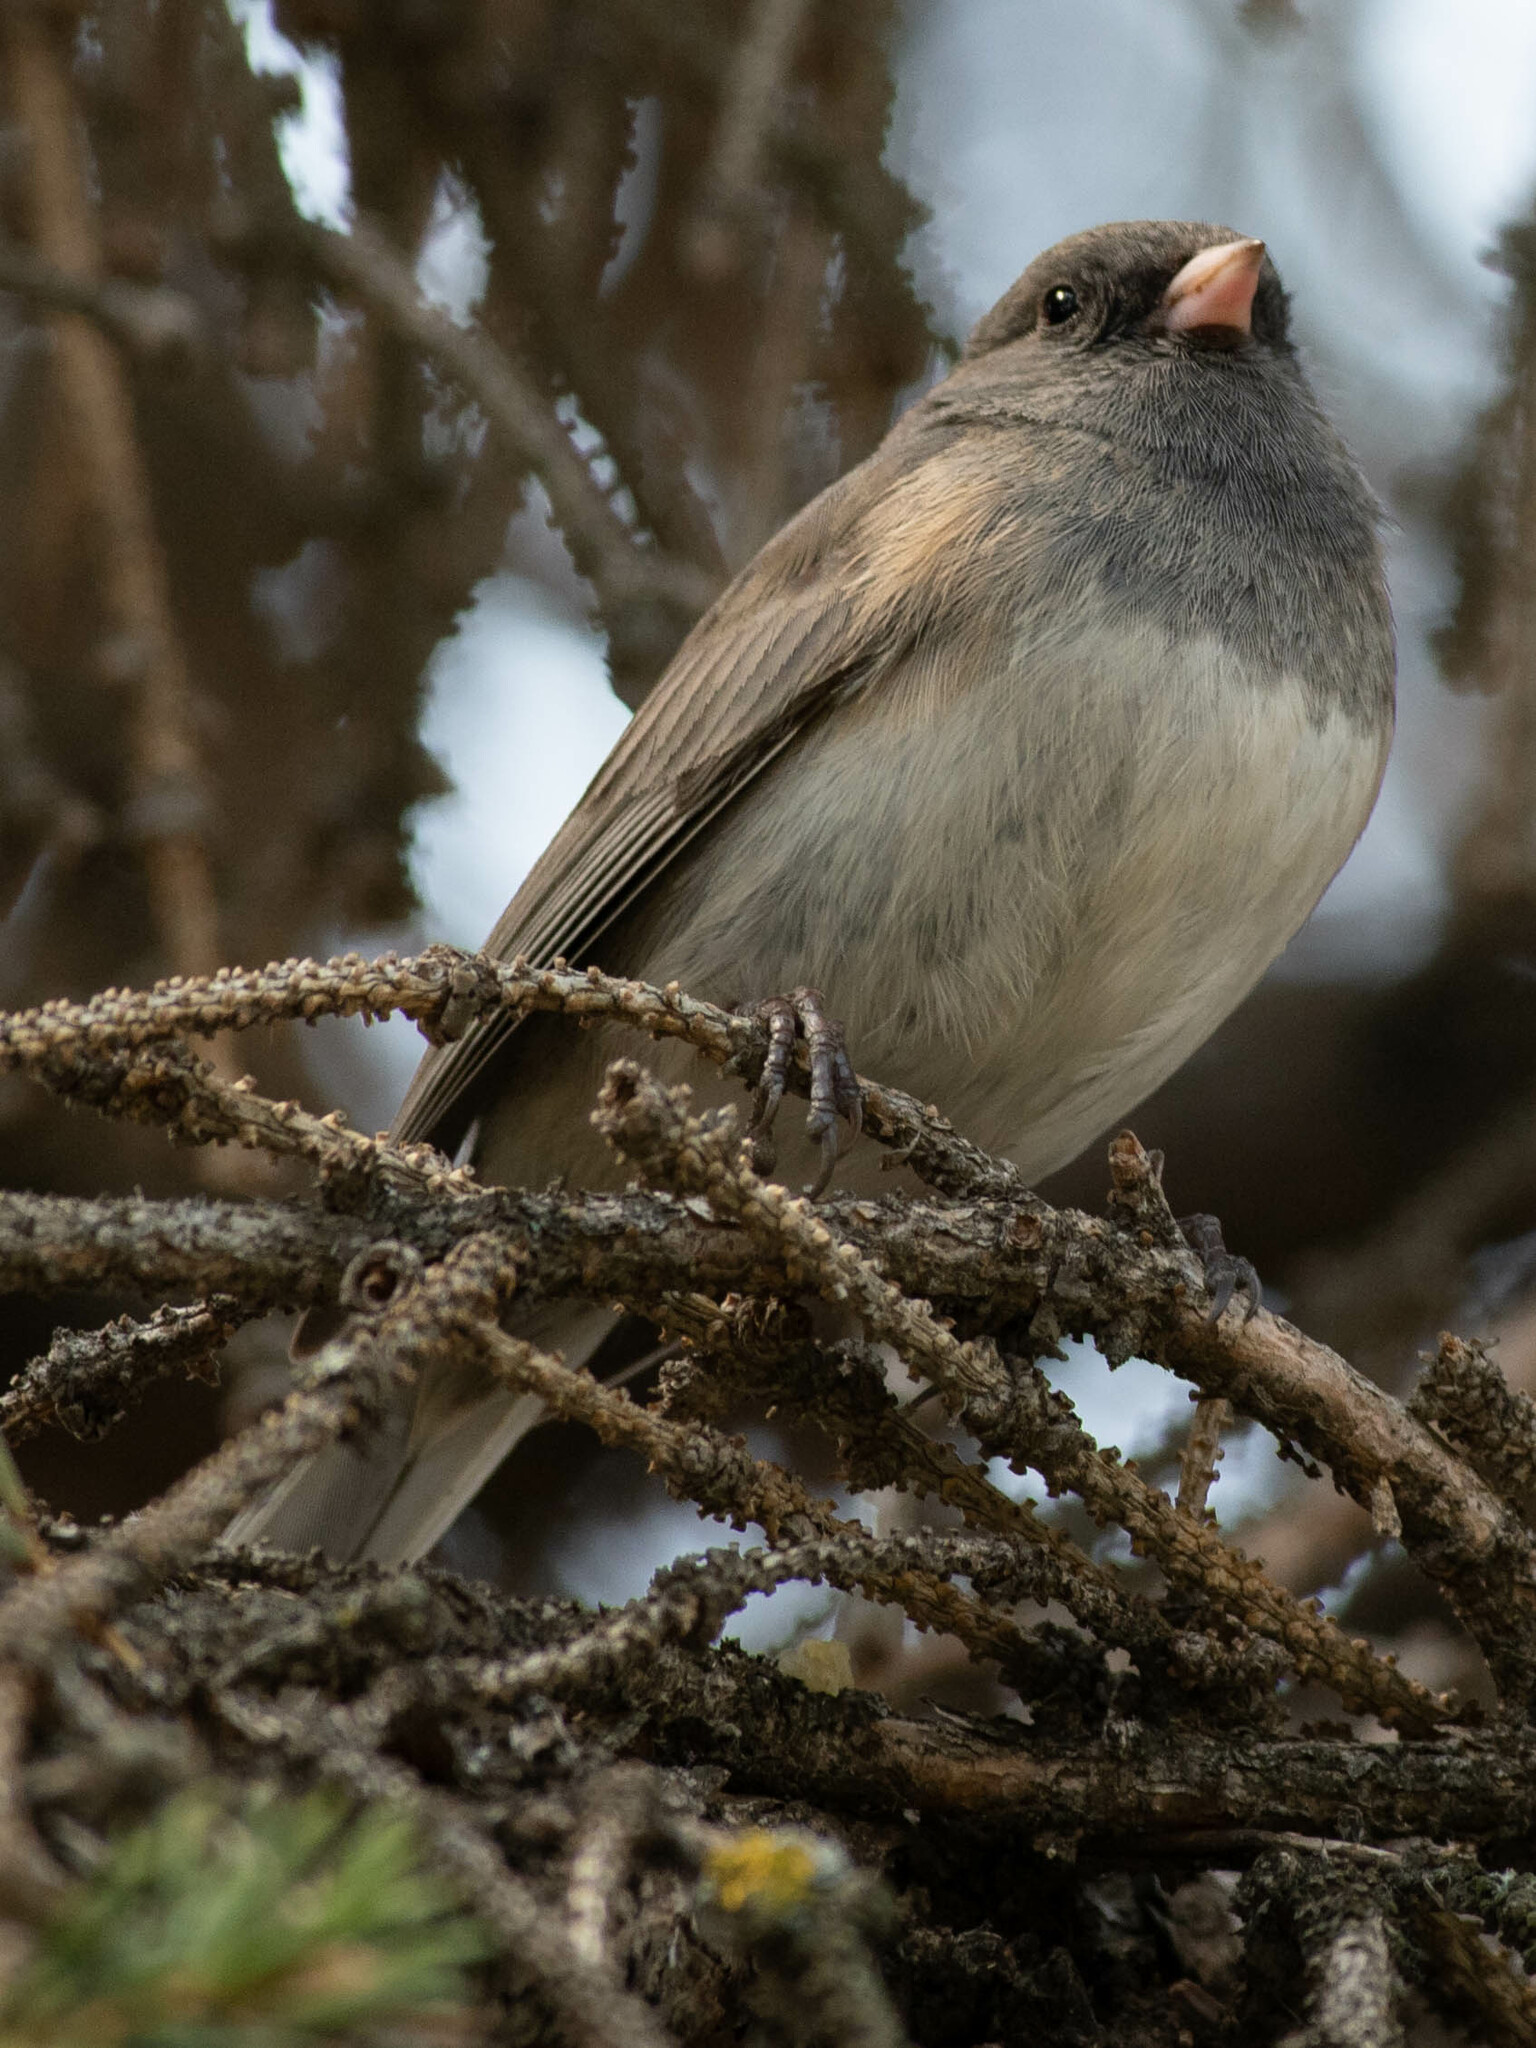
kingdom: Animalia
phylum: Chordata
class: Aves
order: Passeriformes
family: Passerellidae
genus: Junco
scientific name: Junco hyemalis
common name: Dark-eyed junco
